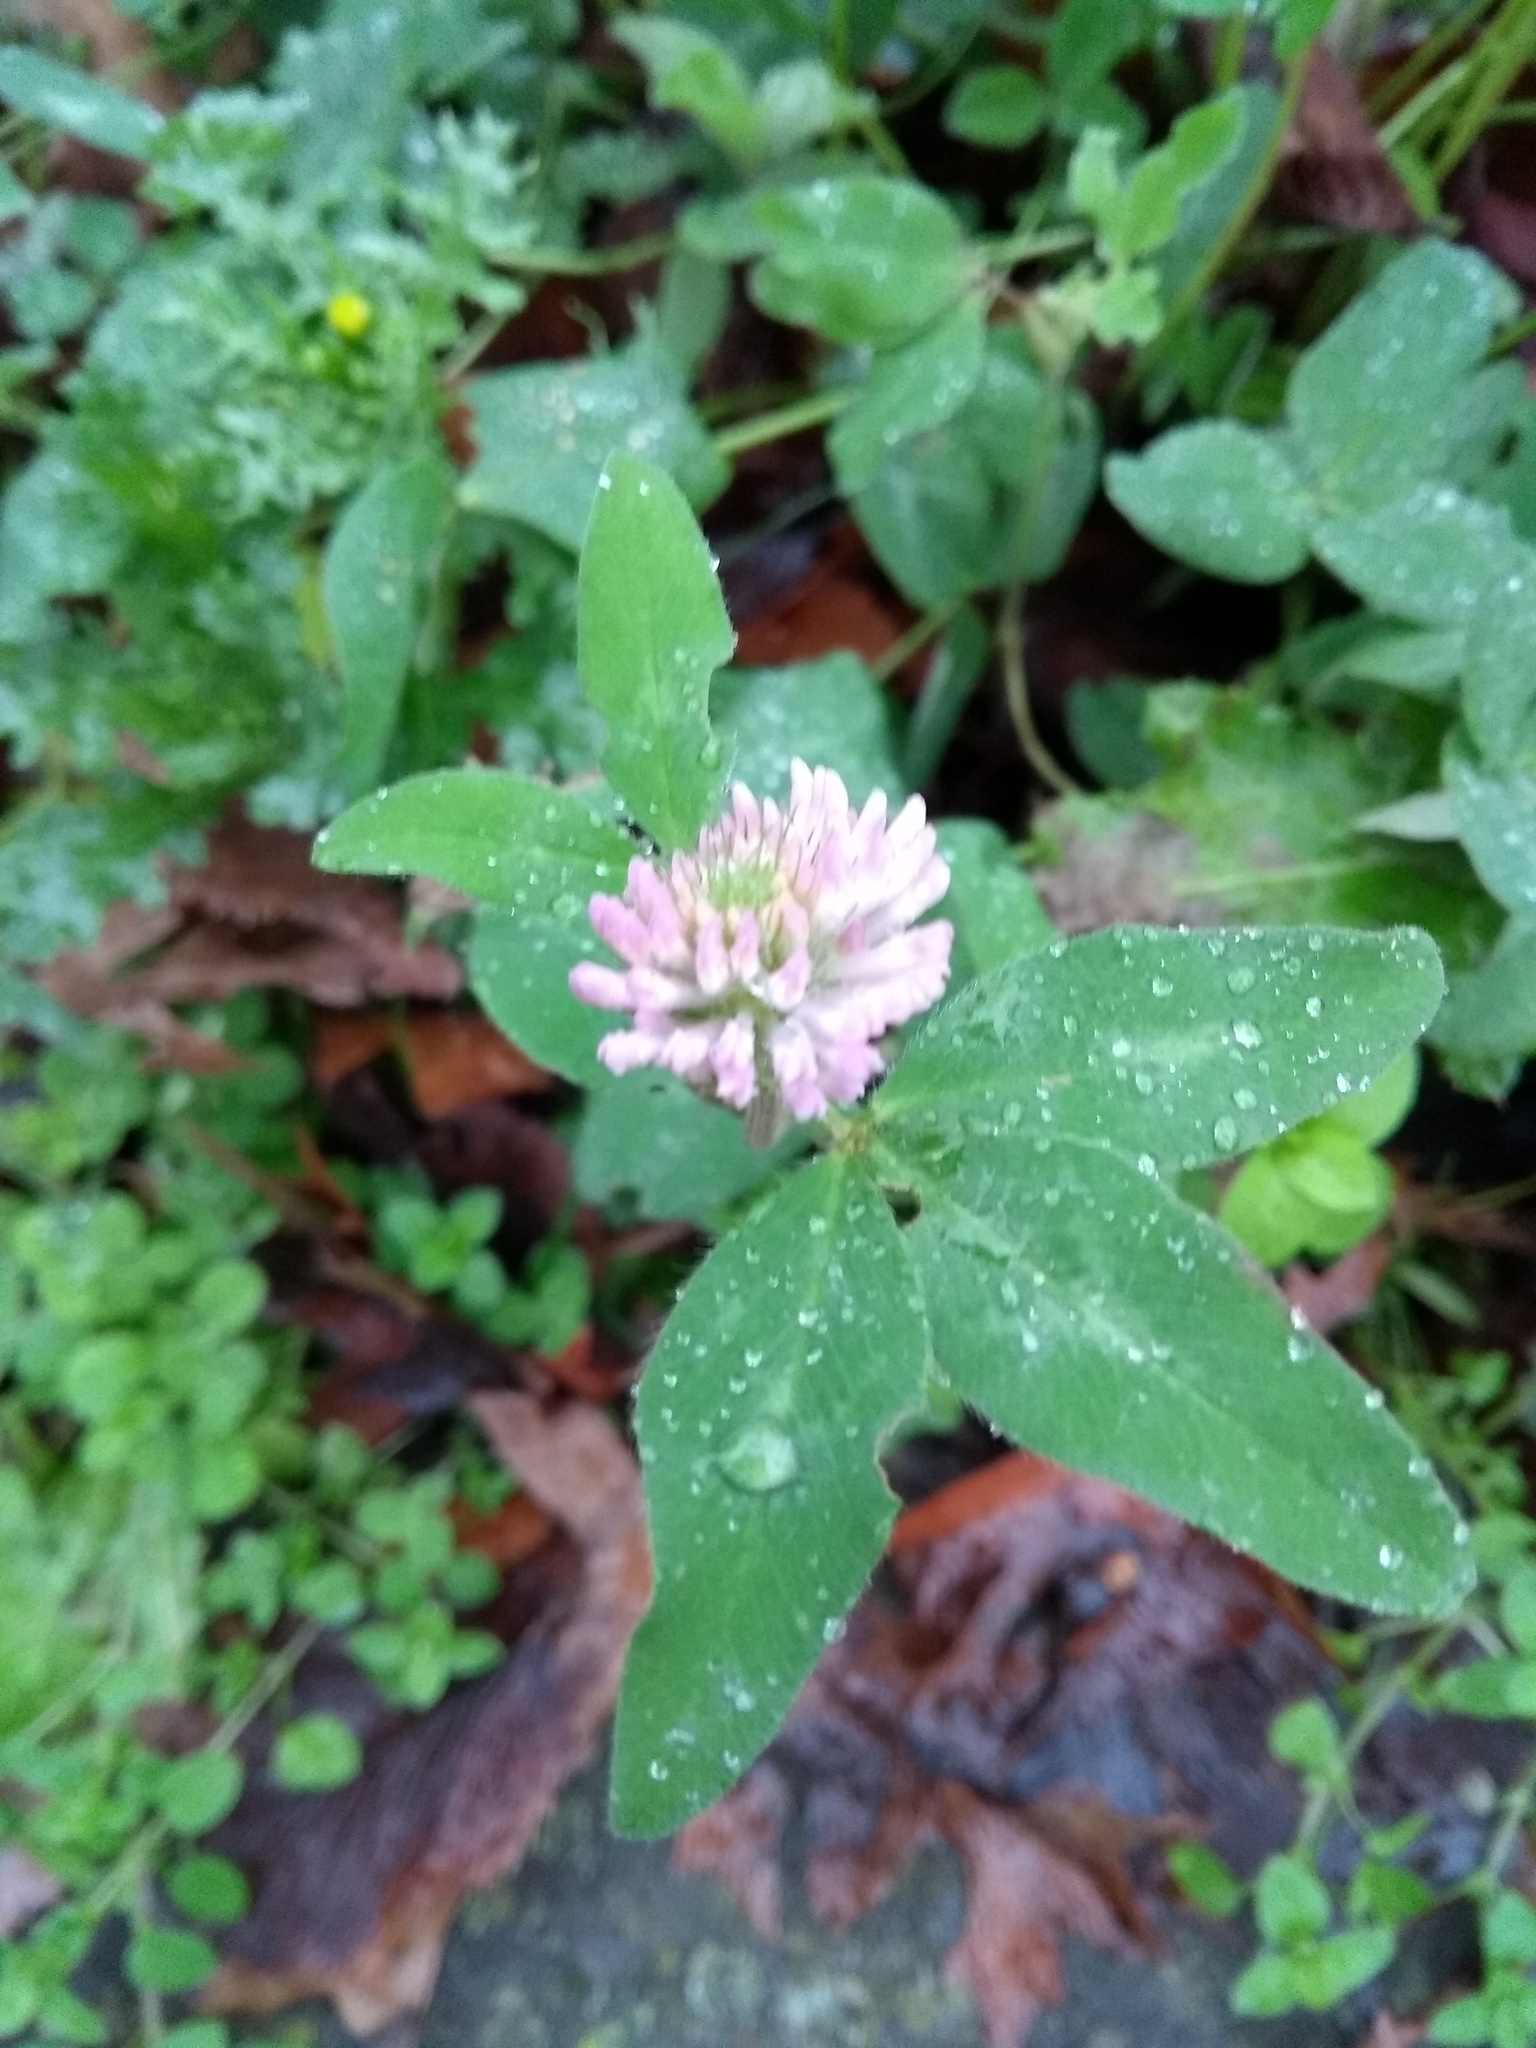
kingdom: Plantae
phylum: Tracheophyta
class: Magnoliopsida
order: Fabales
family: Fabaceae
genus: Trifolium
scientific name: Trifolium pratense
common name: Red clover
